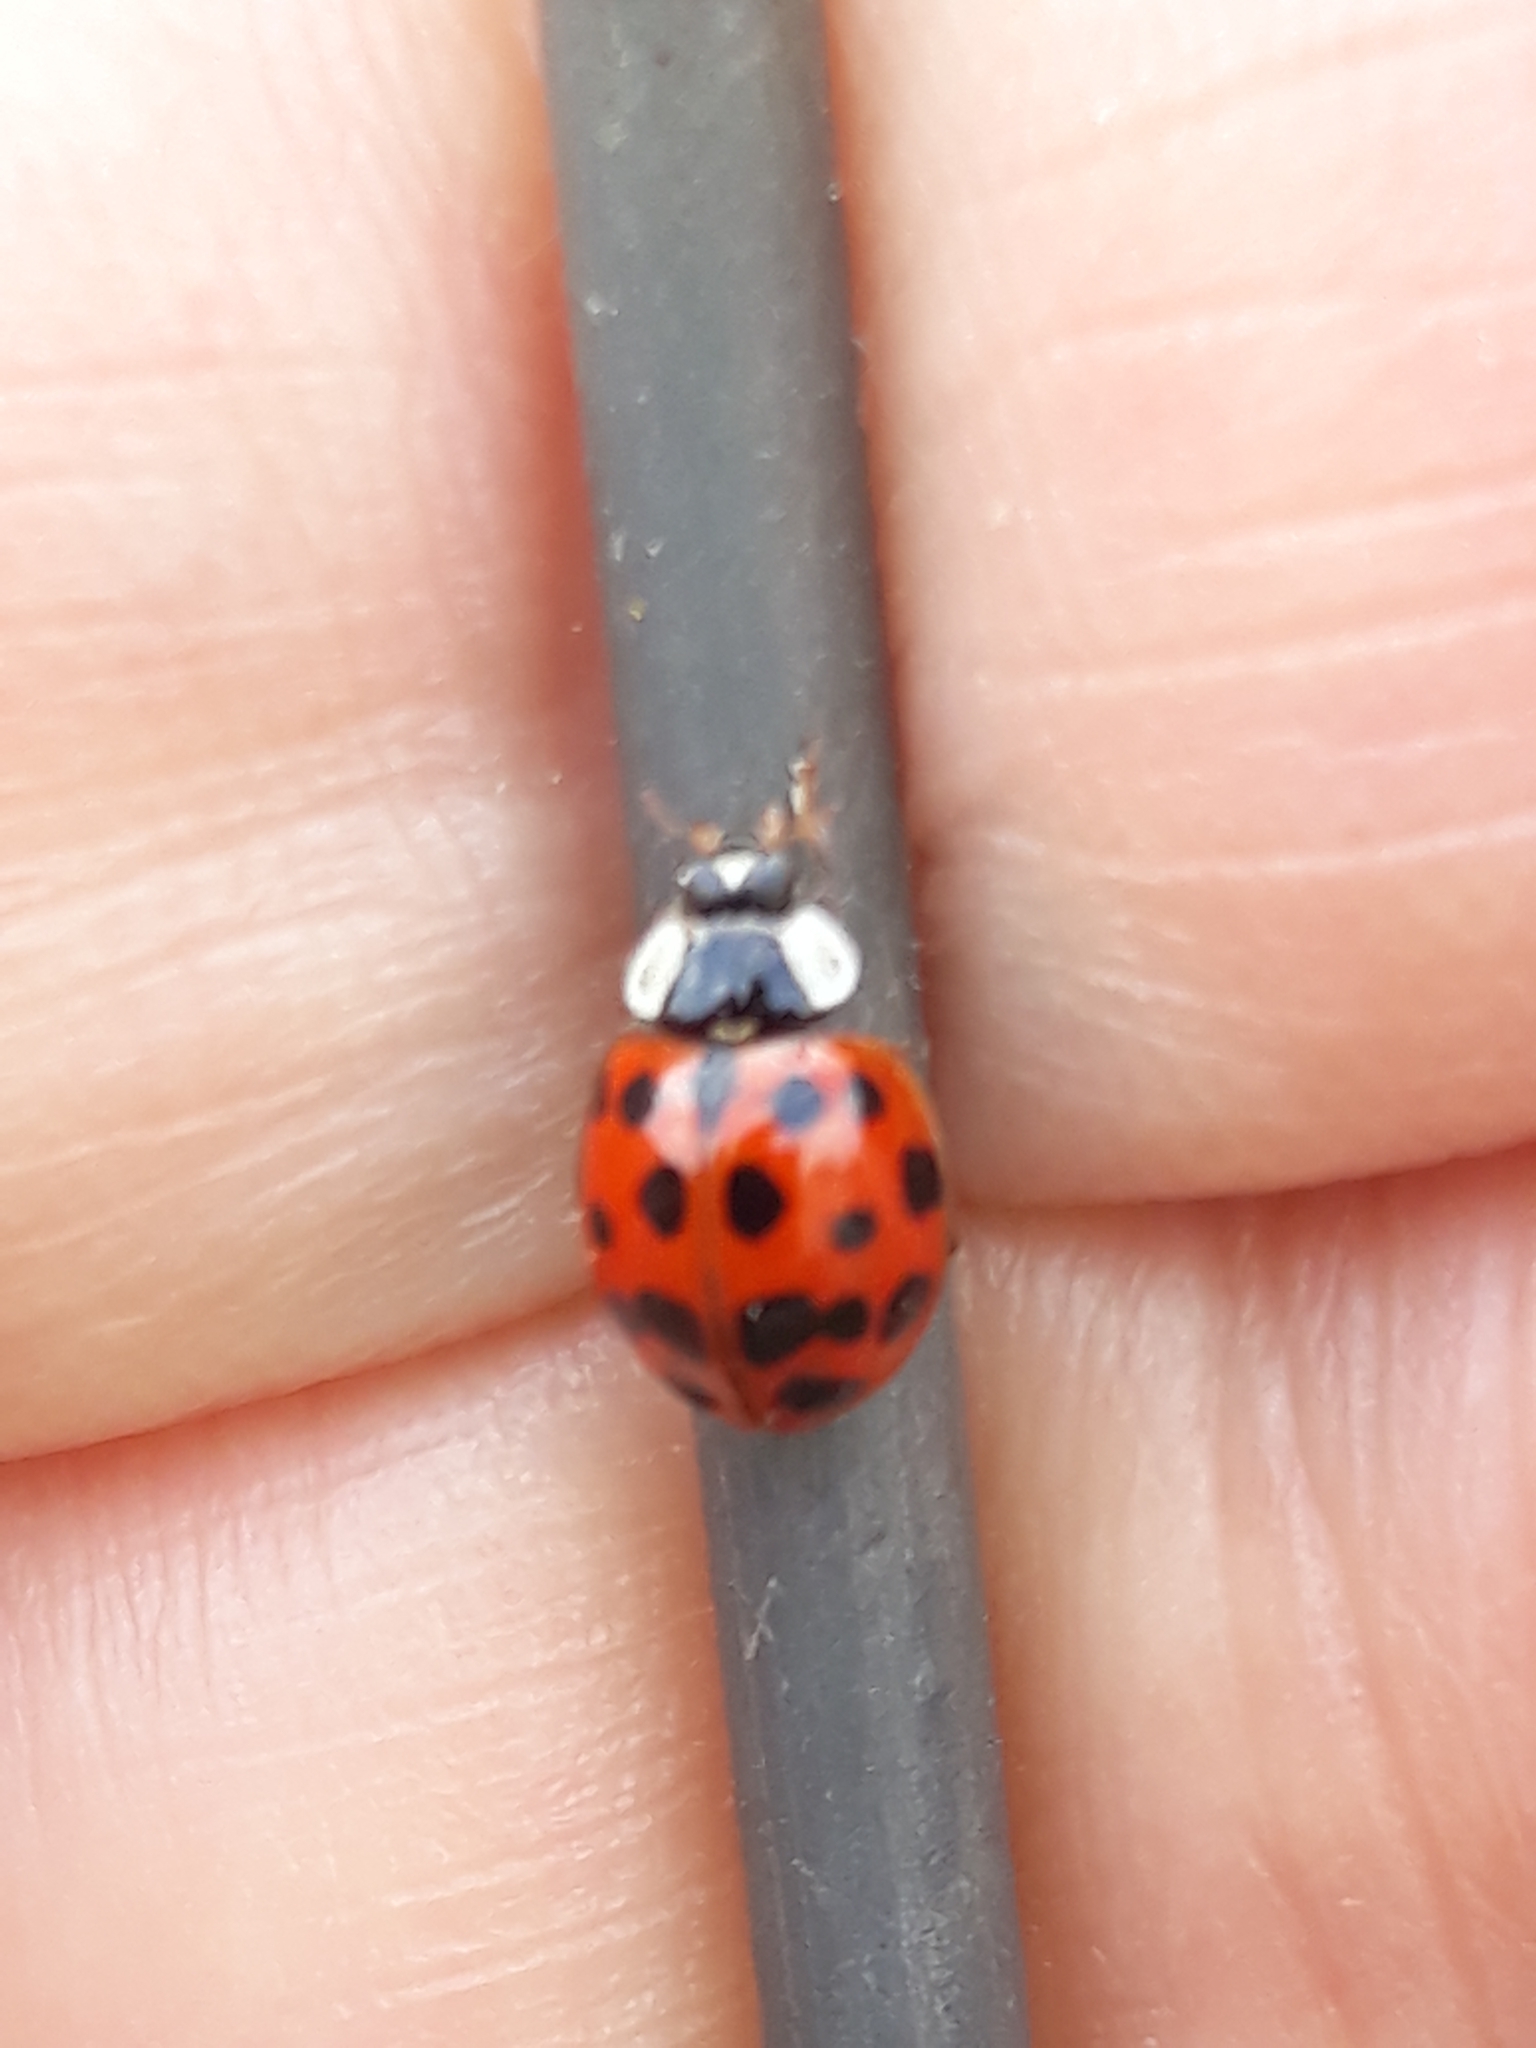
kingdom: Animalia
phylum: Arthropoda
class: Insecta
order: Coleoptera
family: Coccinellidae
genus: Harmonia
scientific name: Harmonia axyridis
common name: Harlequin ladybird
